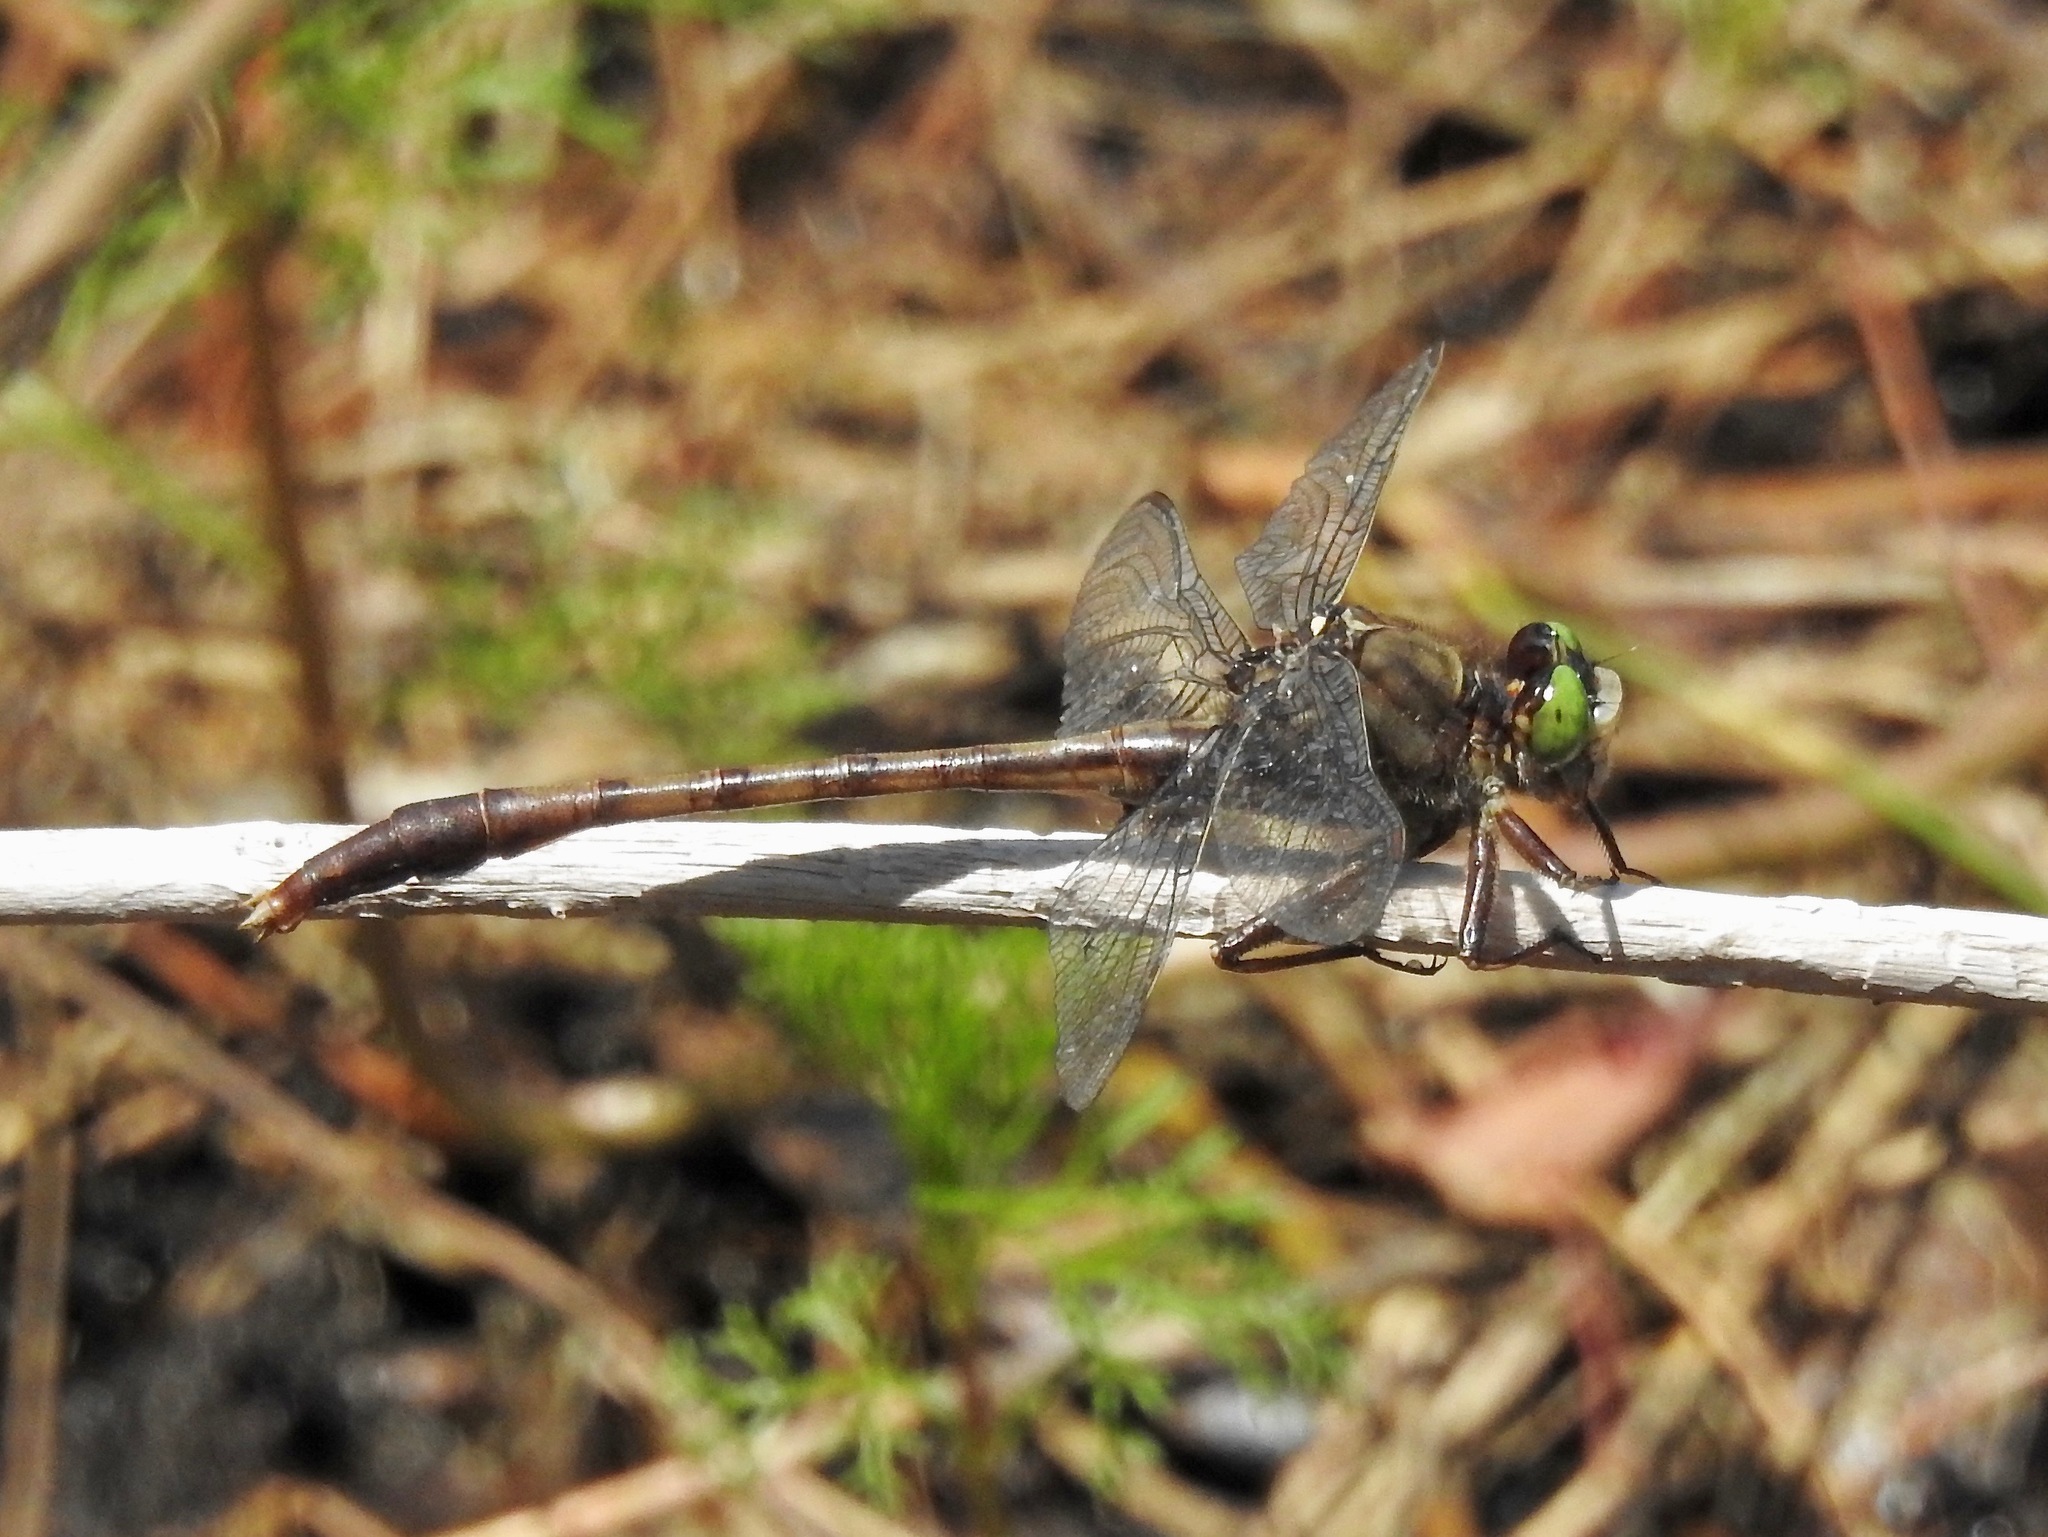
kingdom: Animalia
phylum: Arthropoda
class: Insecta
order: Odonata
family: Gomphidae
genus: Arigomphus
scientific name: Arigomphus pallidus
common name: Gray-green clubtail
